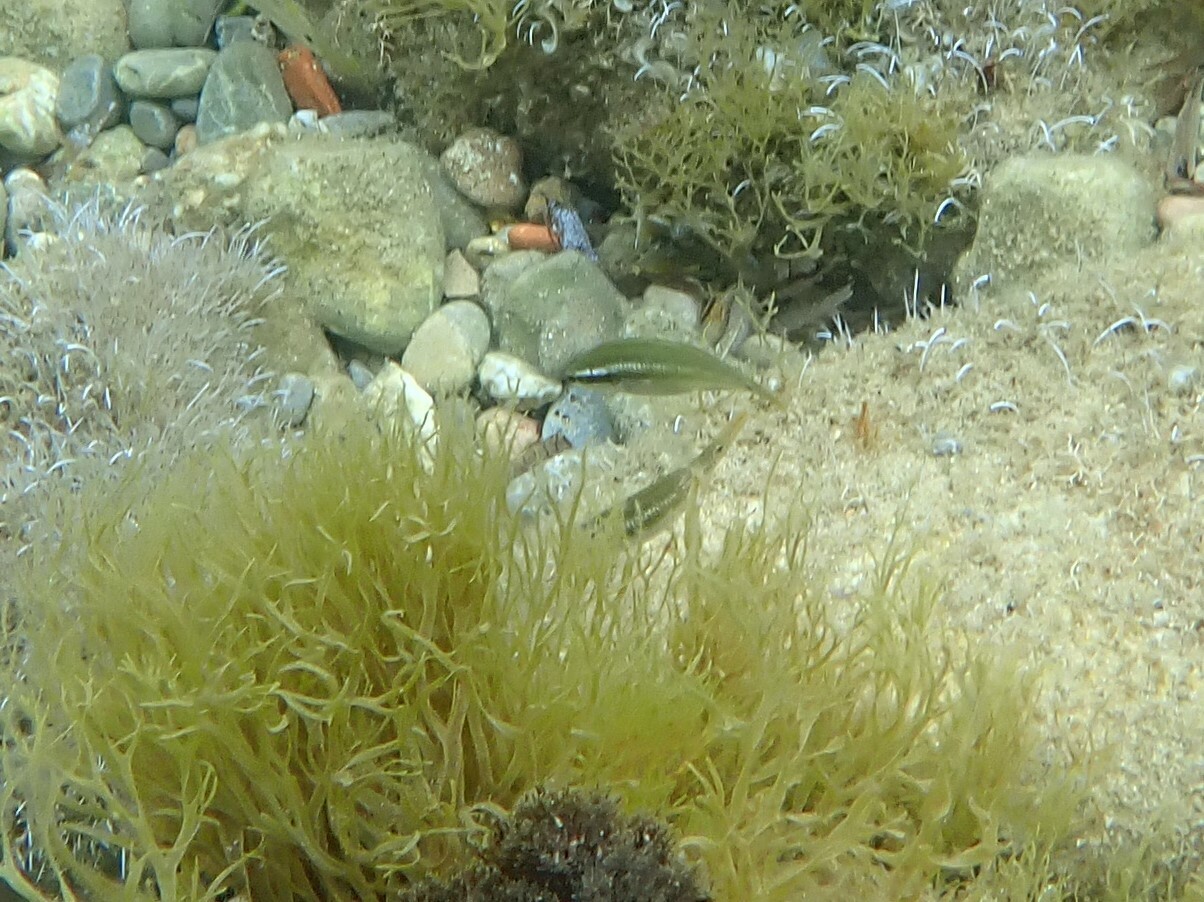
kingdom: Animalia
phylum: Chordata
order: Perciformes
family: Labridae
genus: Symphodus
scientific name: Symphodus ocellatus
